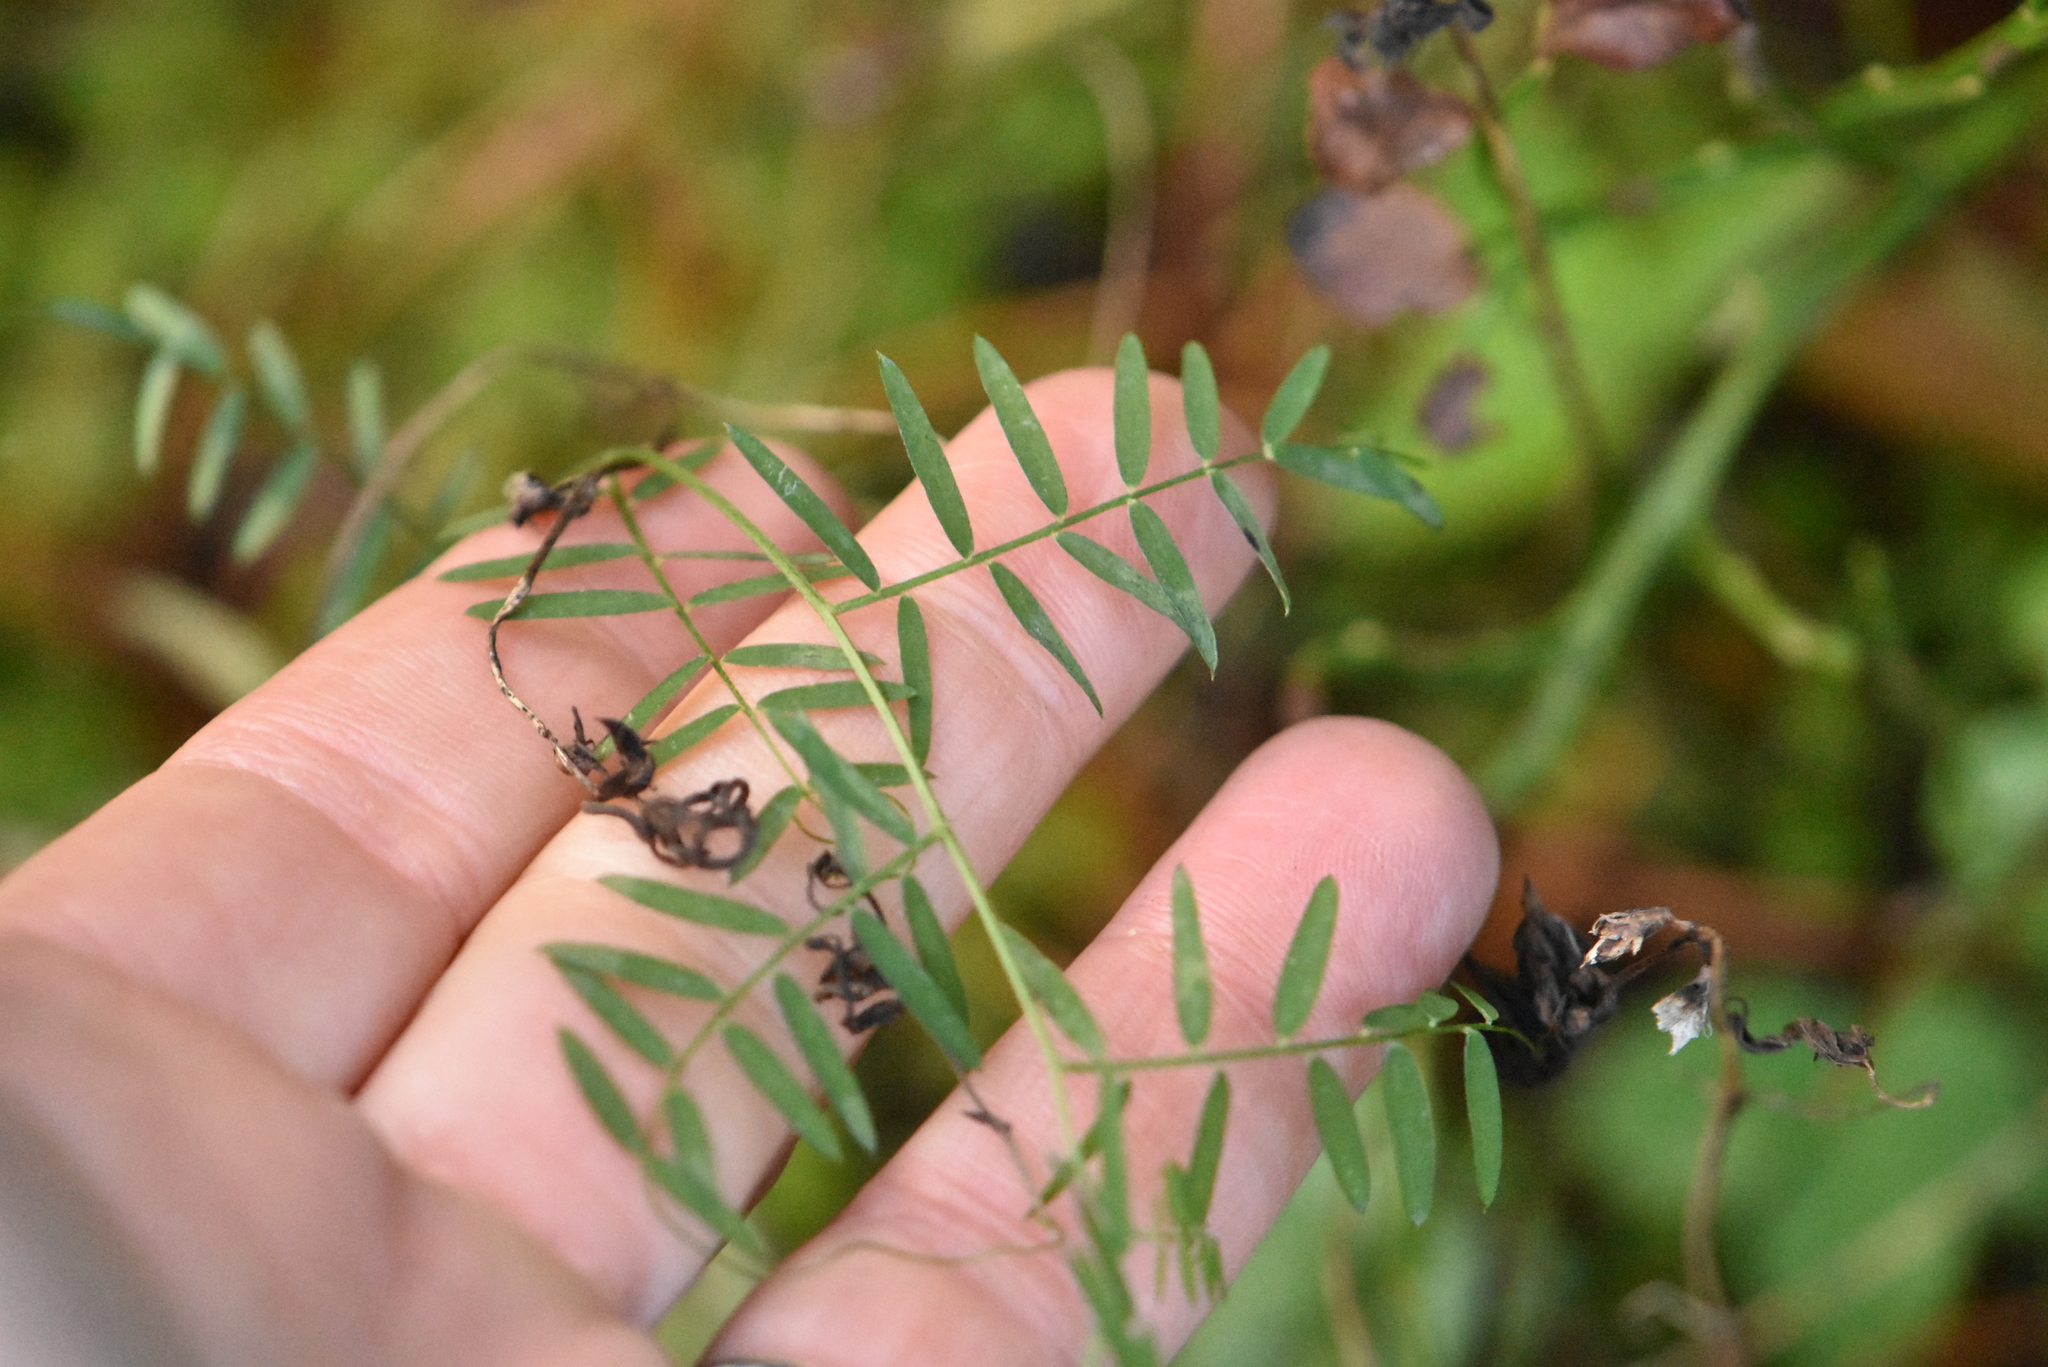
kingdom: Plantae
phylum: Tracheophyta
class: Magnoliopsida
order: Fabales
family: Fabaceae
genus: Vicia
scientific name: Vicia cracca
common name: Bird vetch
